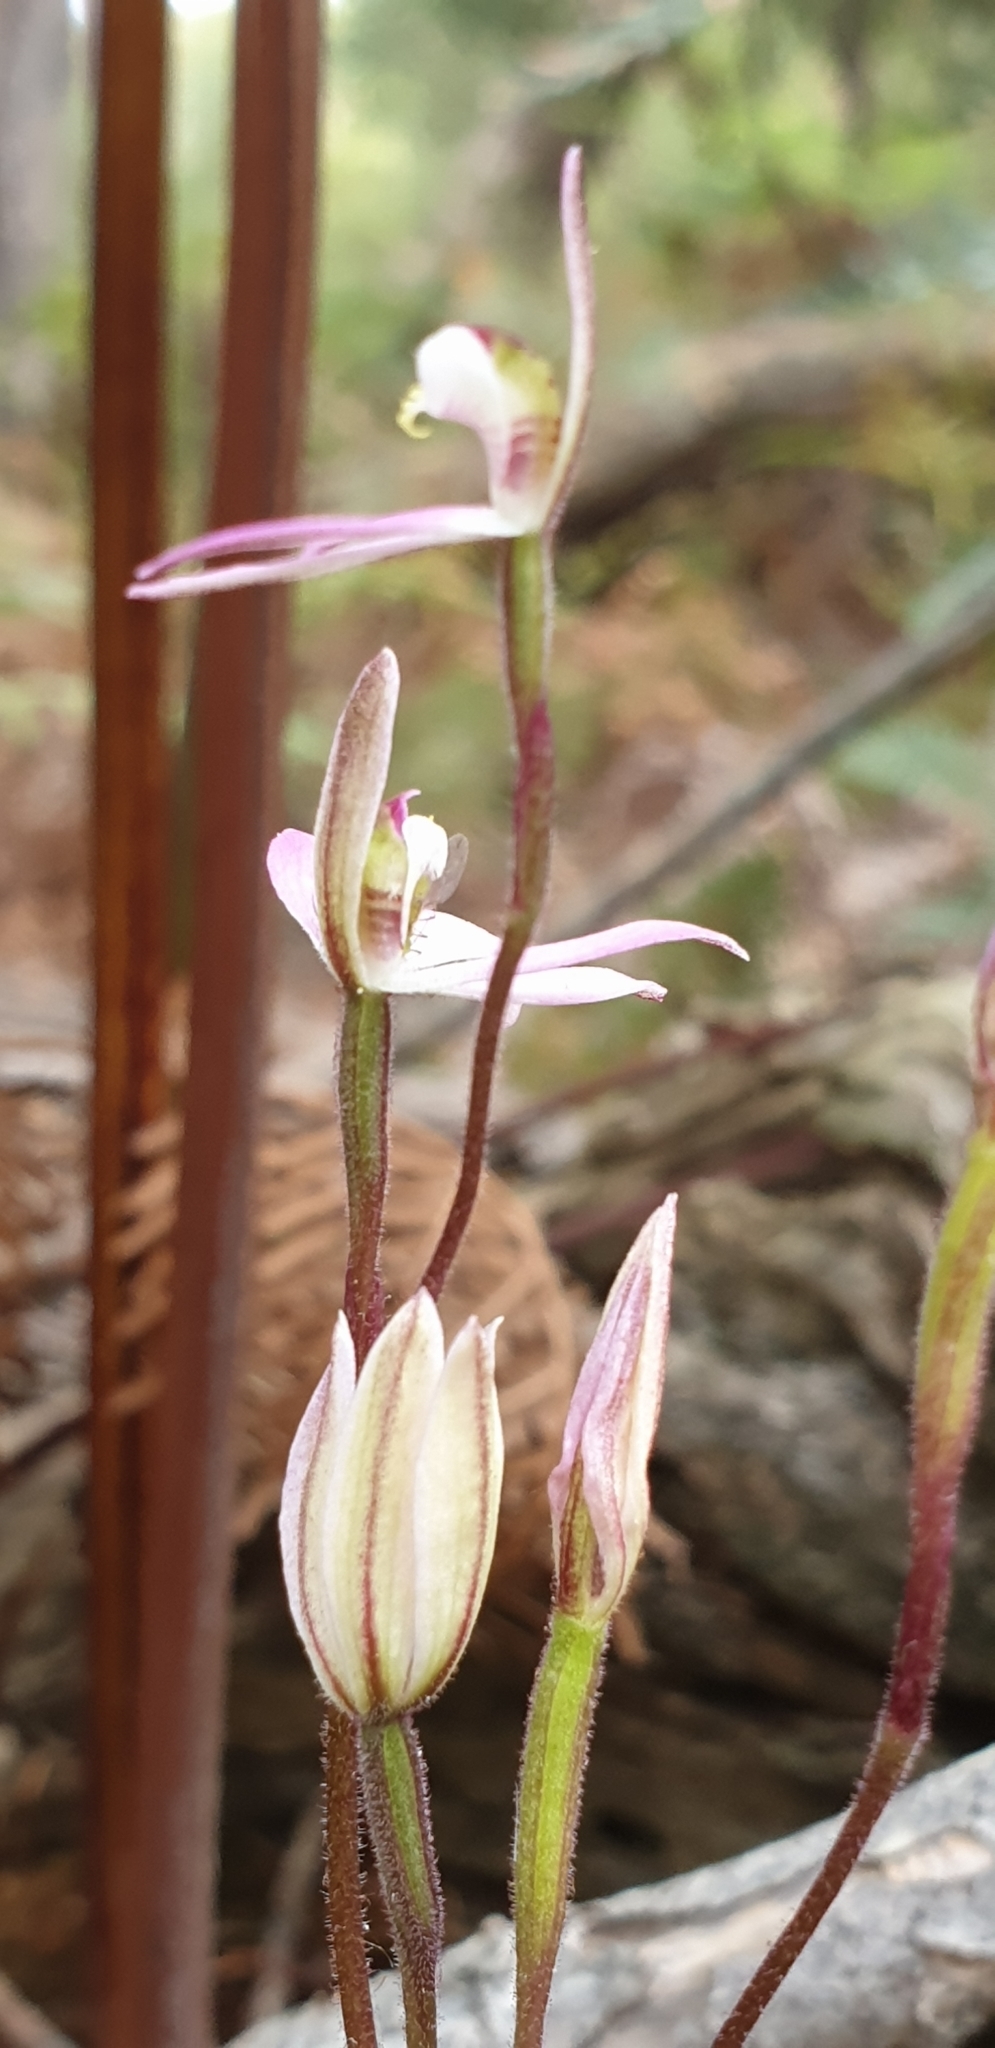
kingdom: Plantae
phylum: Tracheophyta
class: Liliopsida
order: Asparagales
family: Orchidaceae
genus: Caladenia
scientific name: Caladenia carnea
